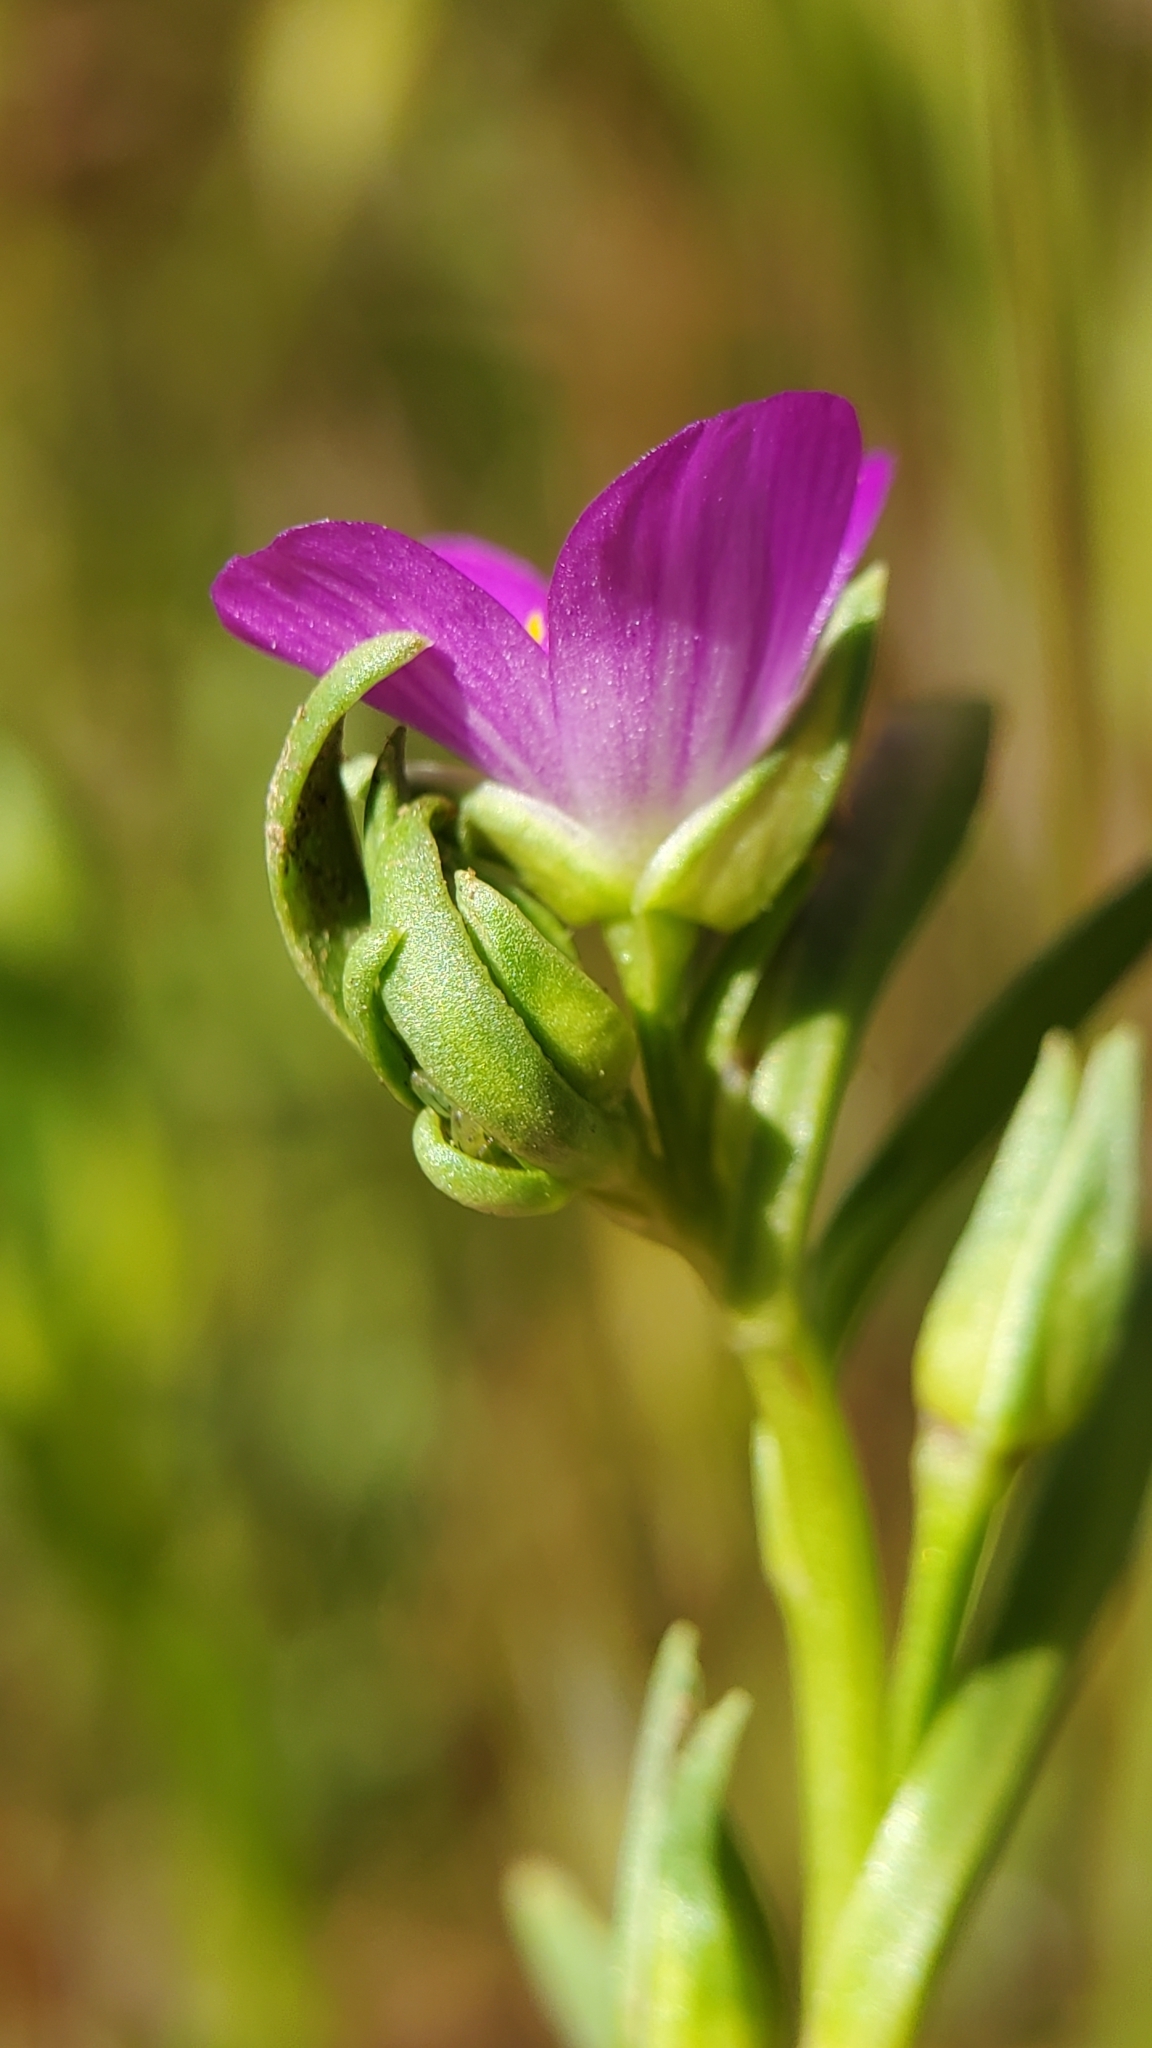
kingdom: Plantae
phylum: Tracheophyta
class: Magnoliopsida
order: Caryophyllales
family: Montiaceae
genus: Calandrinia
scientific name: Calandrinia menziesii
